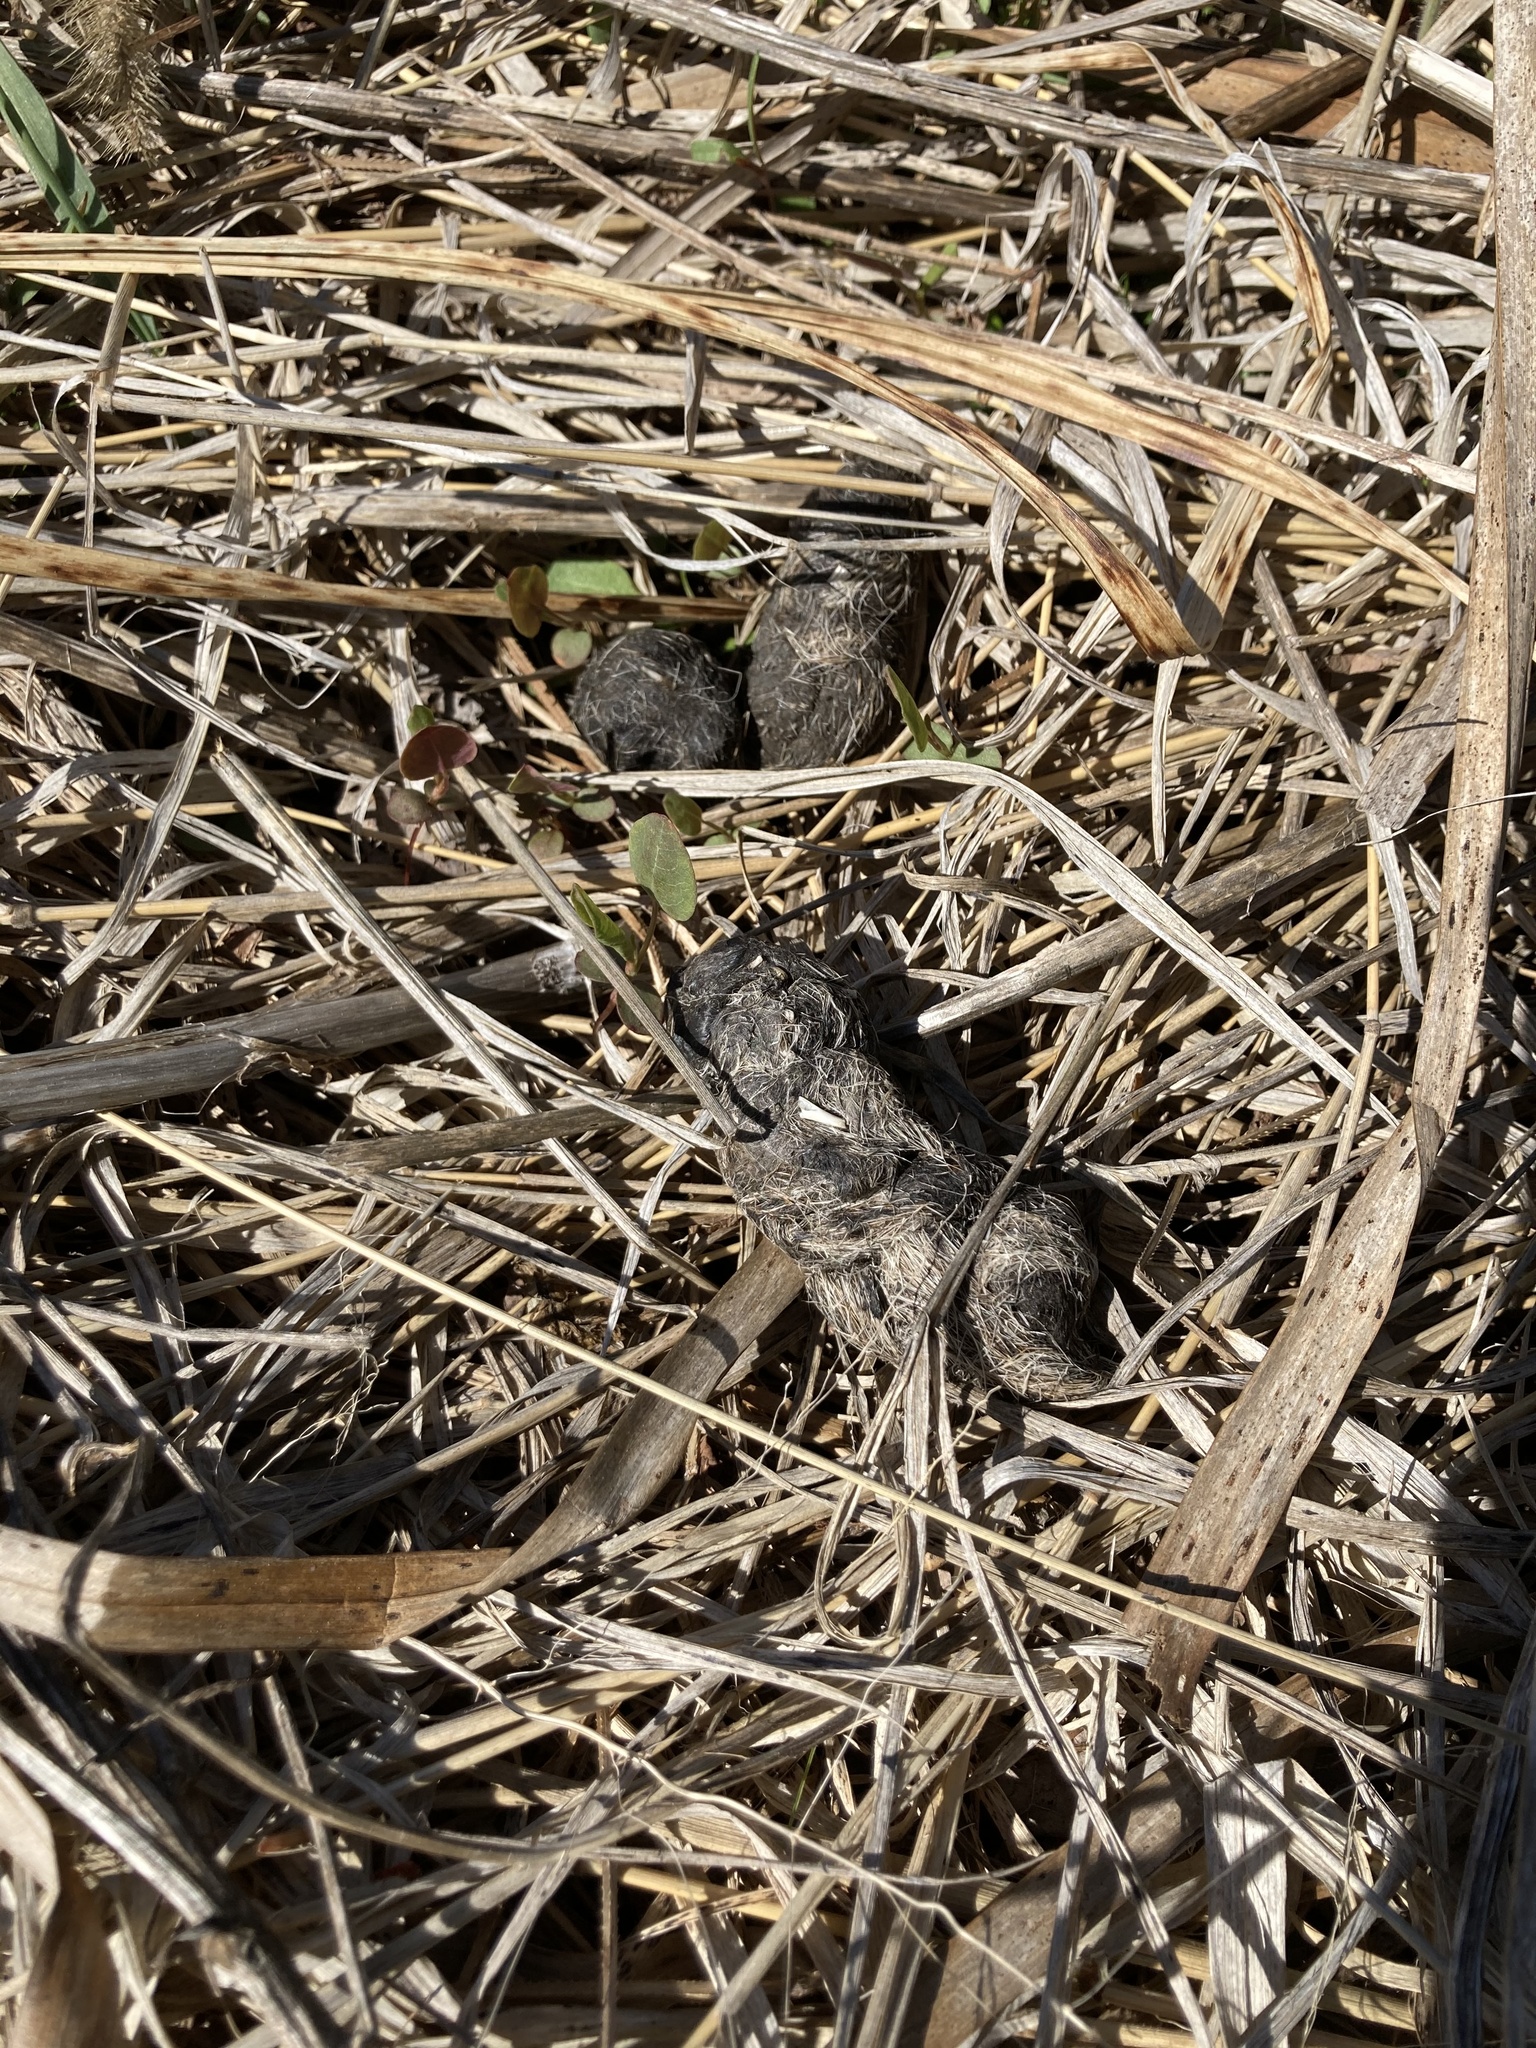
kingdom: Animalia
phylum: Chordata
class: Mammalia
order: Carnivora
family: Canidae
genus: Canis
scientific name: Canis latrans
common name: Coyote
